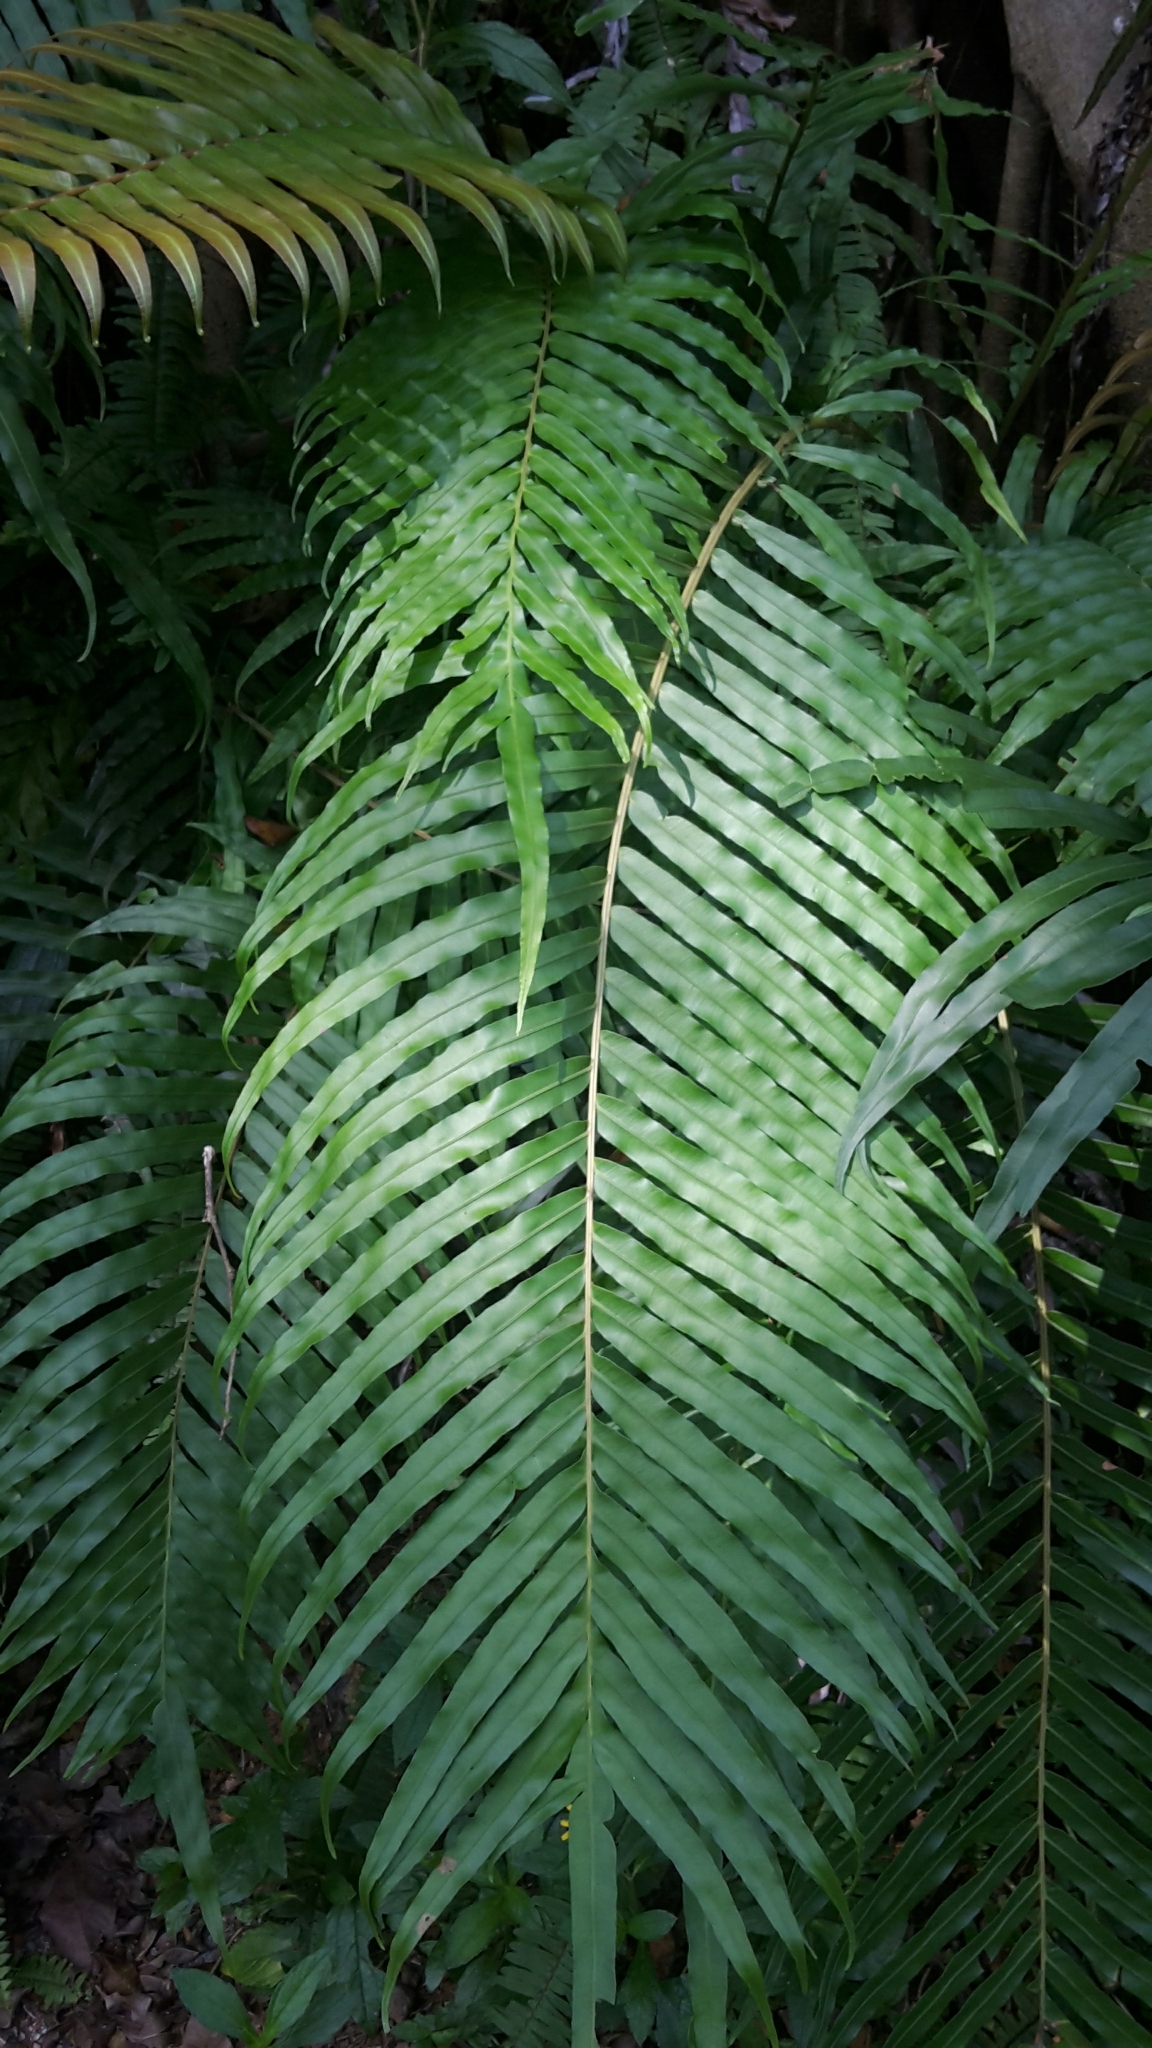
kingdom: Plantae
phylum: Tracheophyta
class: Polypodiopsida
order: Polypodiales
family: Blechnaceae
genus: Blechnopsis
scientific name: Blechnopsis orientalis
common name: Oriental blechnum
